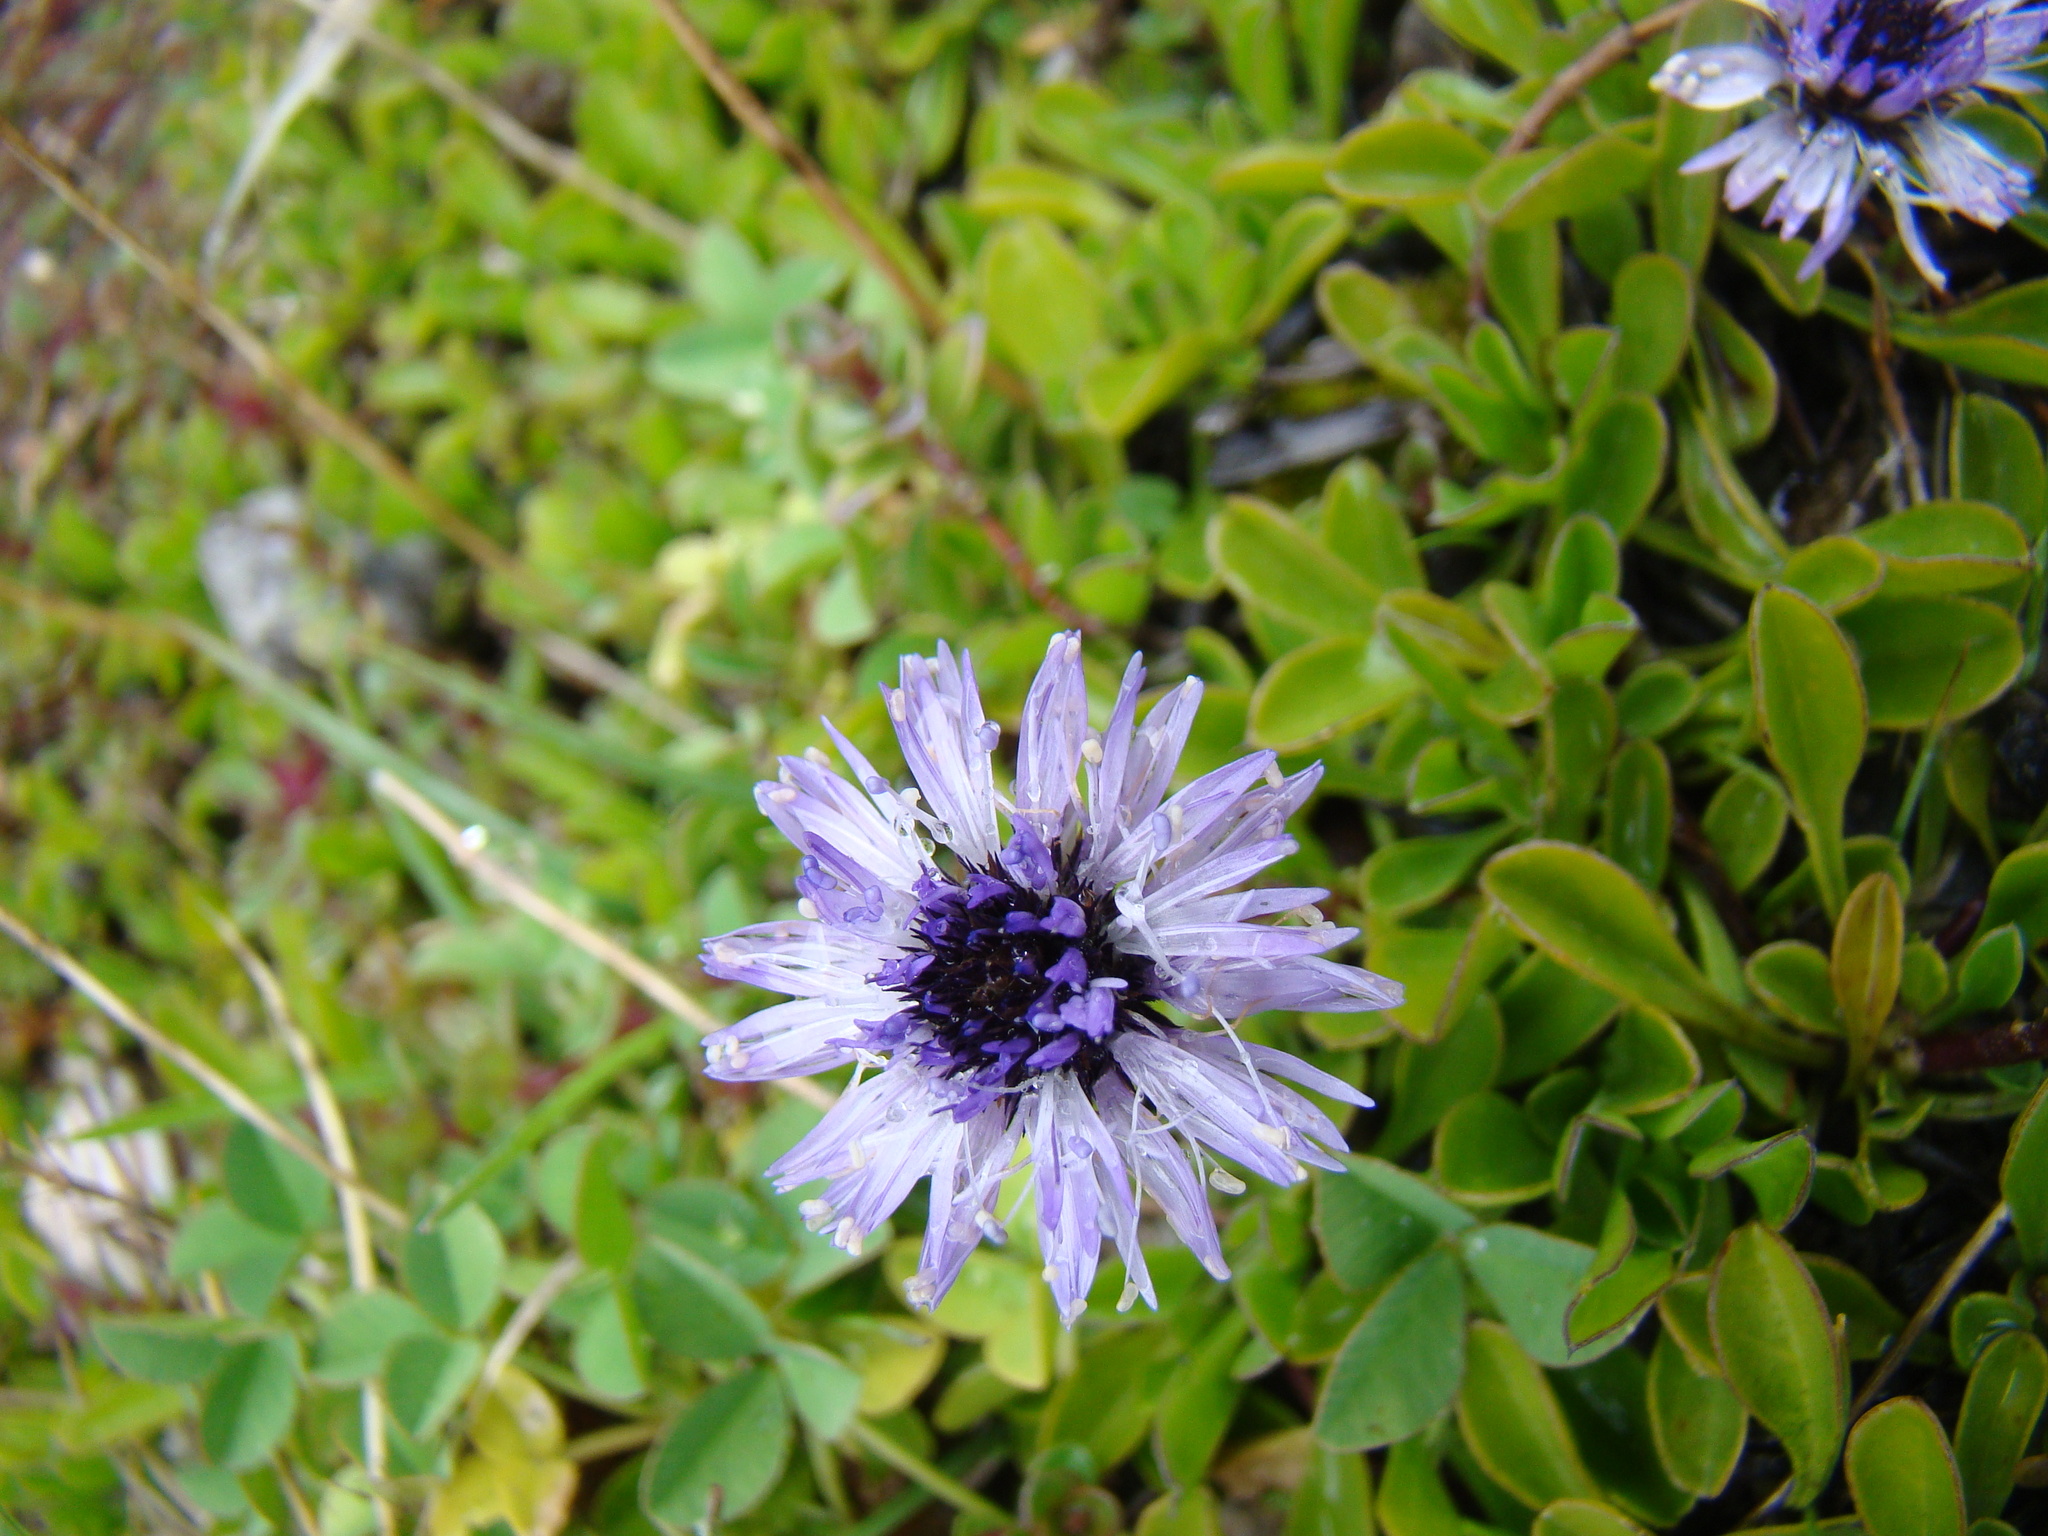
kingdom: Plantae
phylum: Tracheophyta
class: Magnoliopsida
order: Lamiales
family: Plantaginaceae
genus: Globularia
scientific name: Globularia cordifolia
